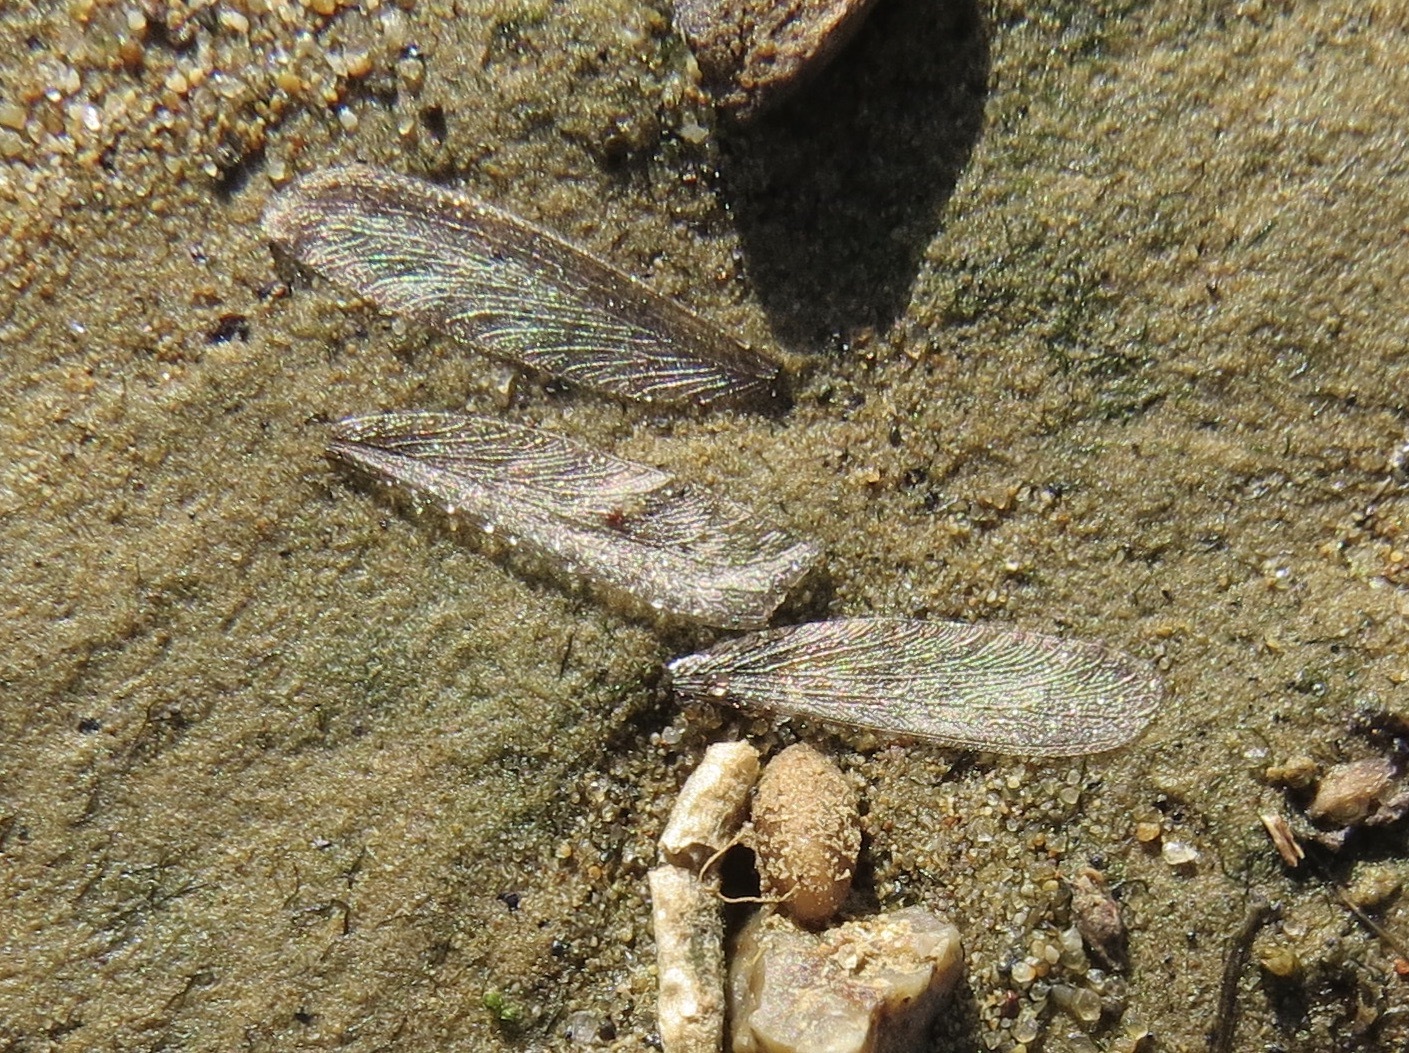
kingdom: Animalia
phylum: Arthropoda
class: Insecta
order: Blattodea
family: Rhinotermitidae
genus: Reticulitermes
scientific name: Reticulitermes hesperus
